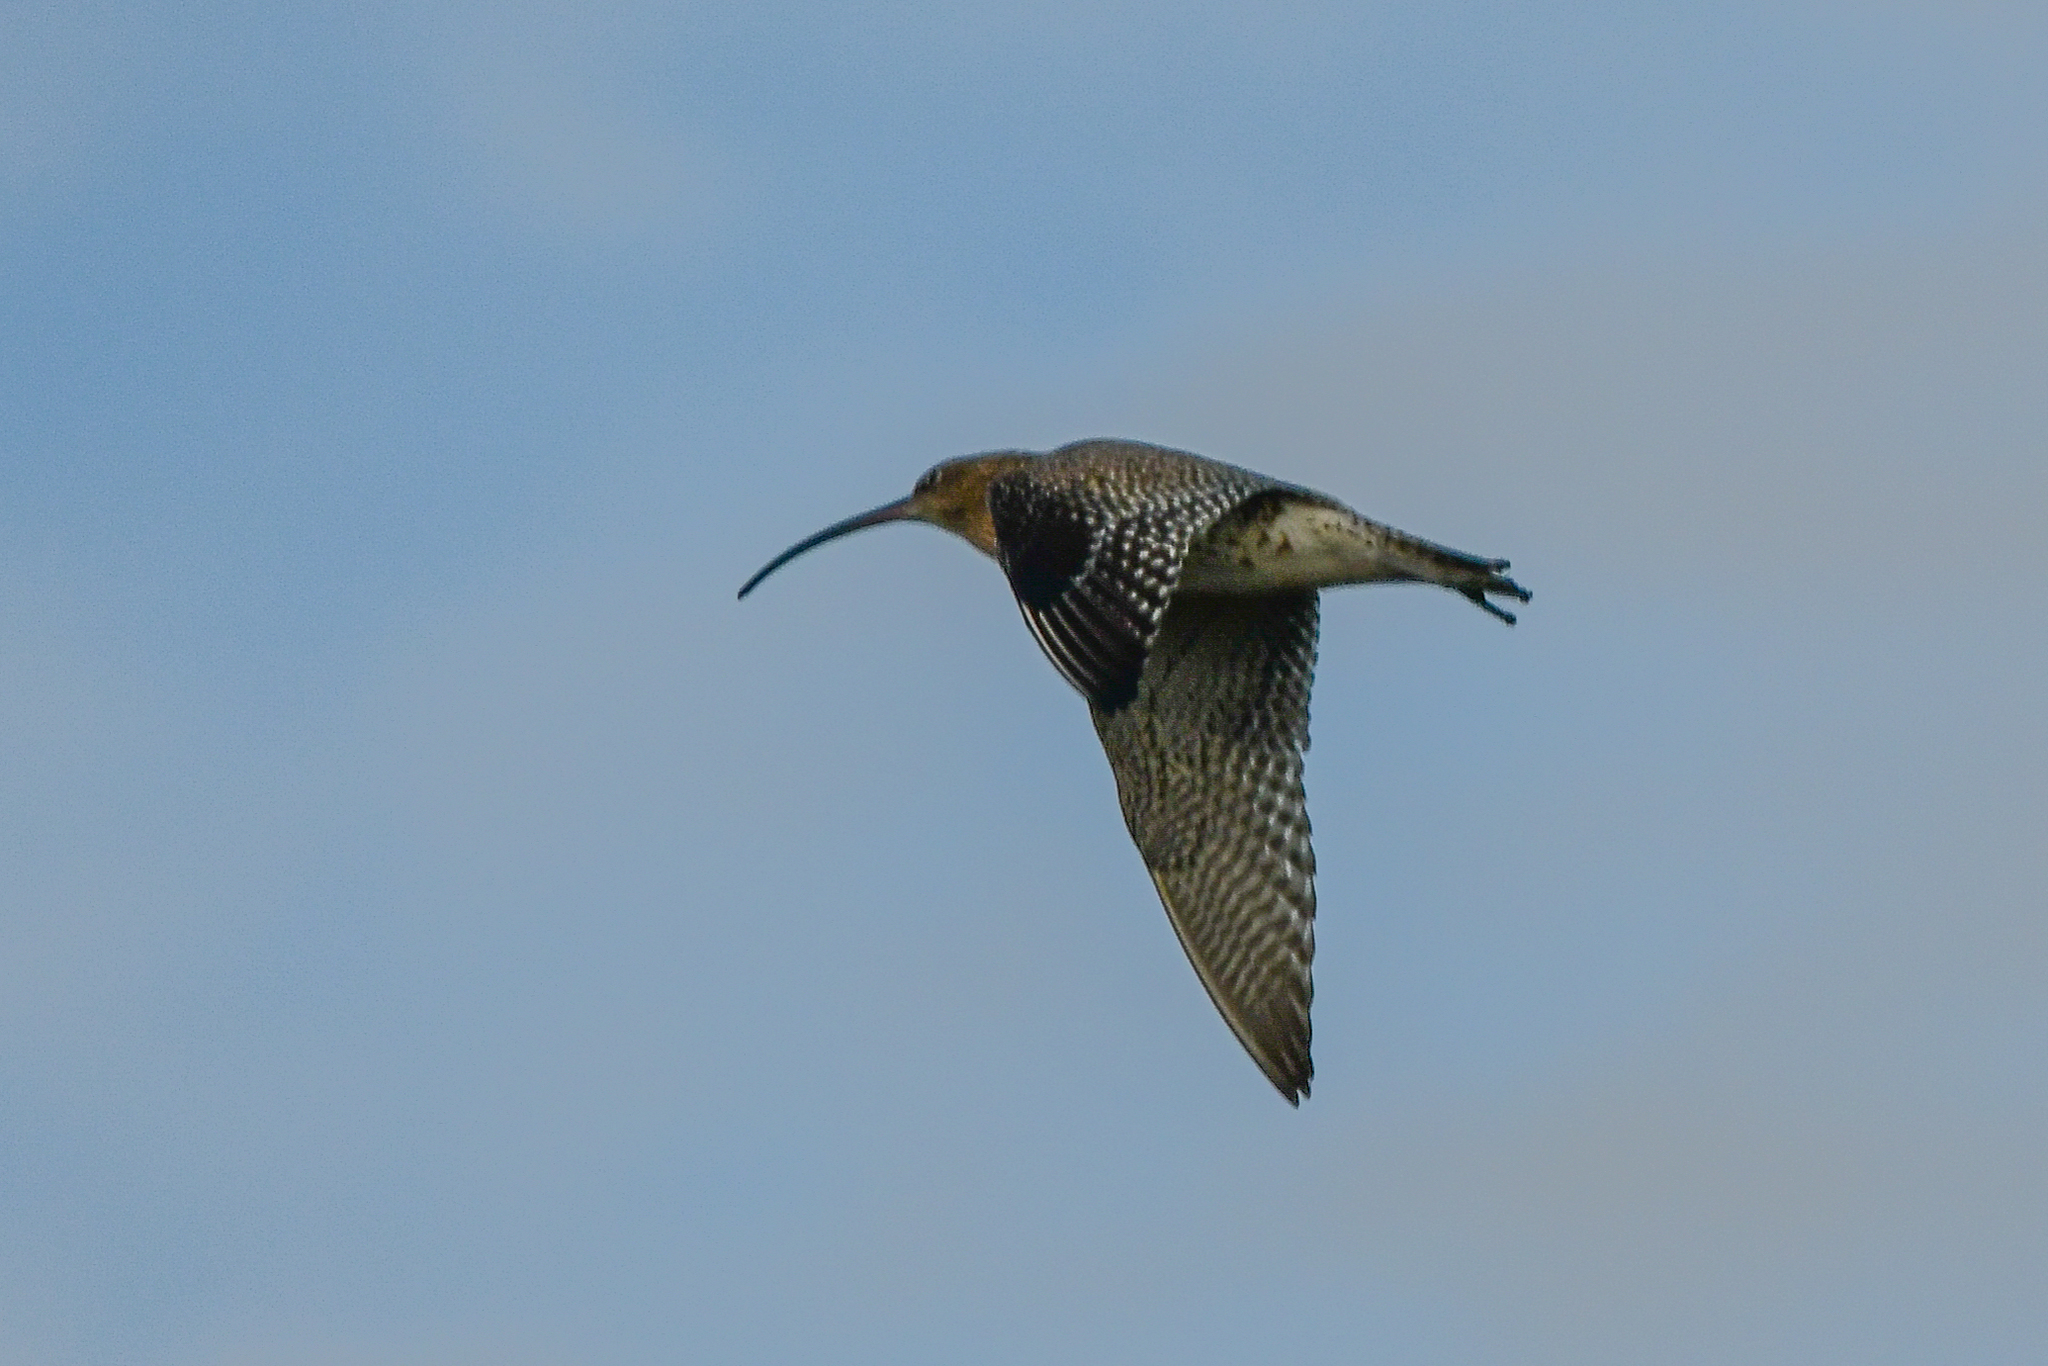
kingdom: Animalia
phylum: Chordata
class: Aves
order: Charadriiformes
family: Scolopacidae
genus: Numenius
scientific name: Numenius arquata
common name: Eurasian curlew
